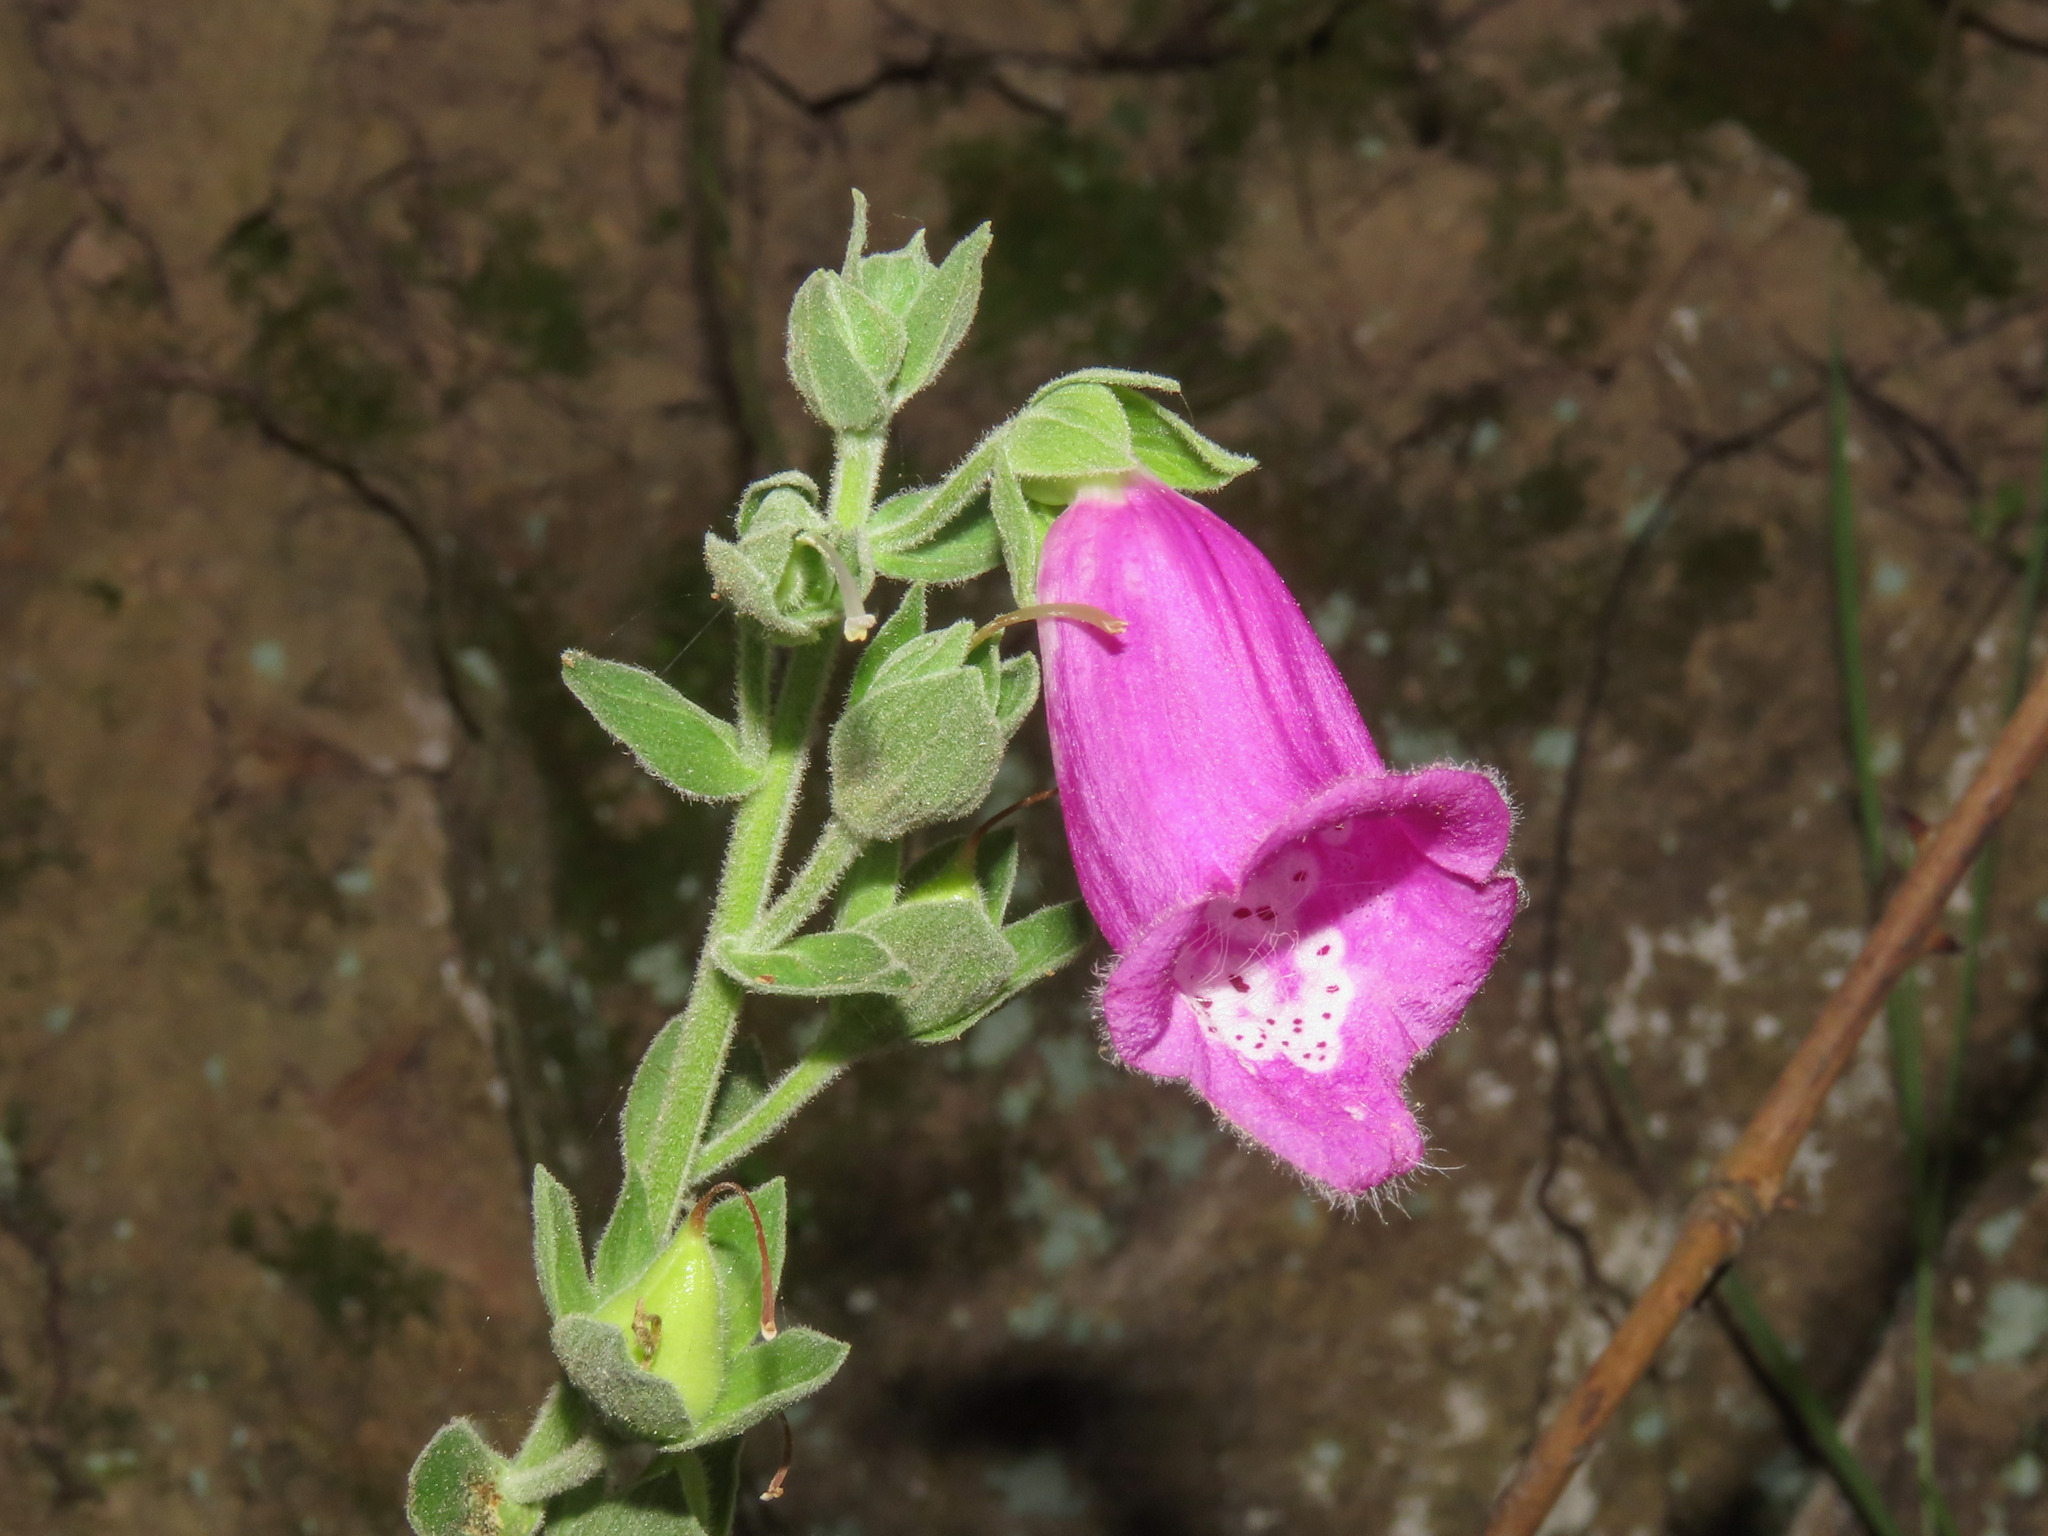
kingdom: Plantae
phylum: Tracheophyta
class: Magnoliopsida
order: Lamiales
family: Plantaginaceae
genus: Digitalis
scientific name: Digitalis purpurea
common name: Foxglove
